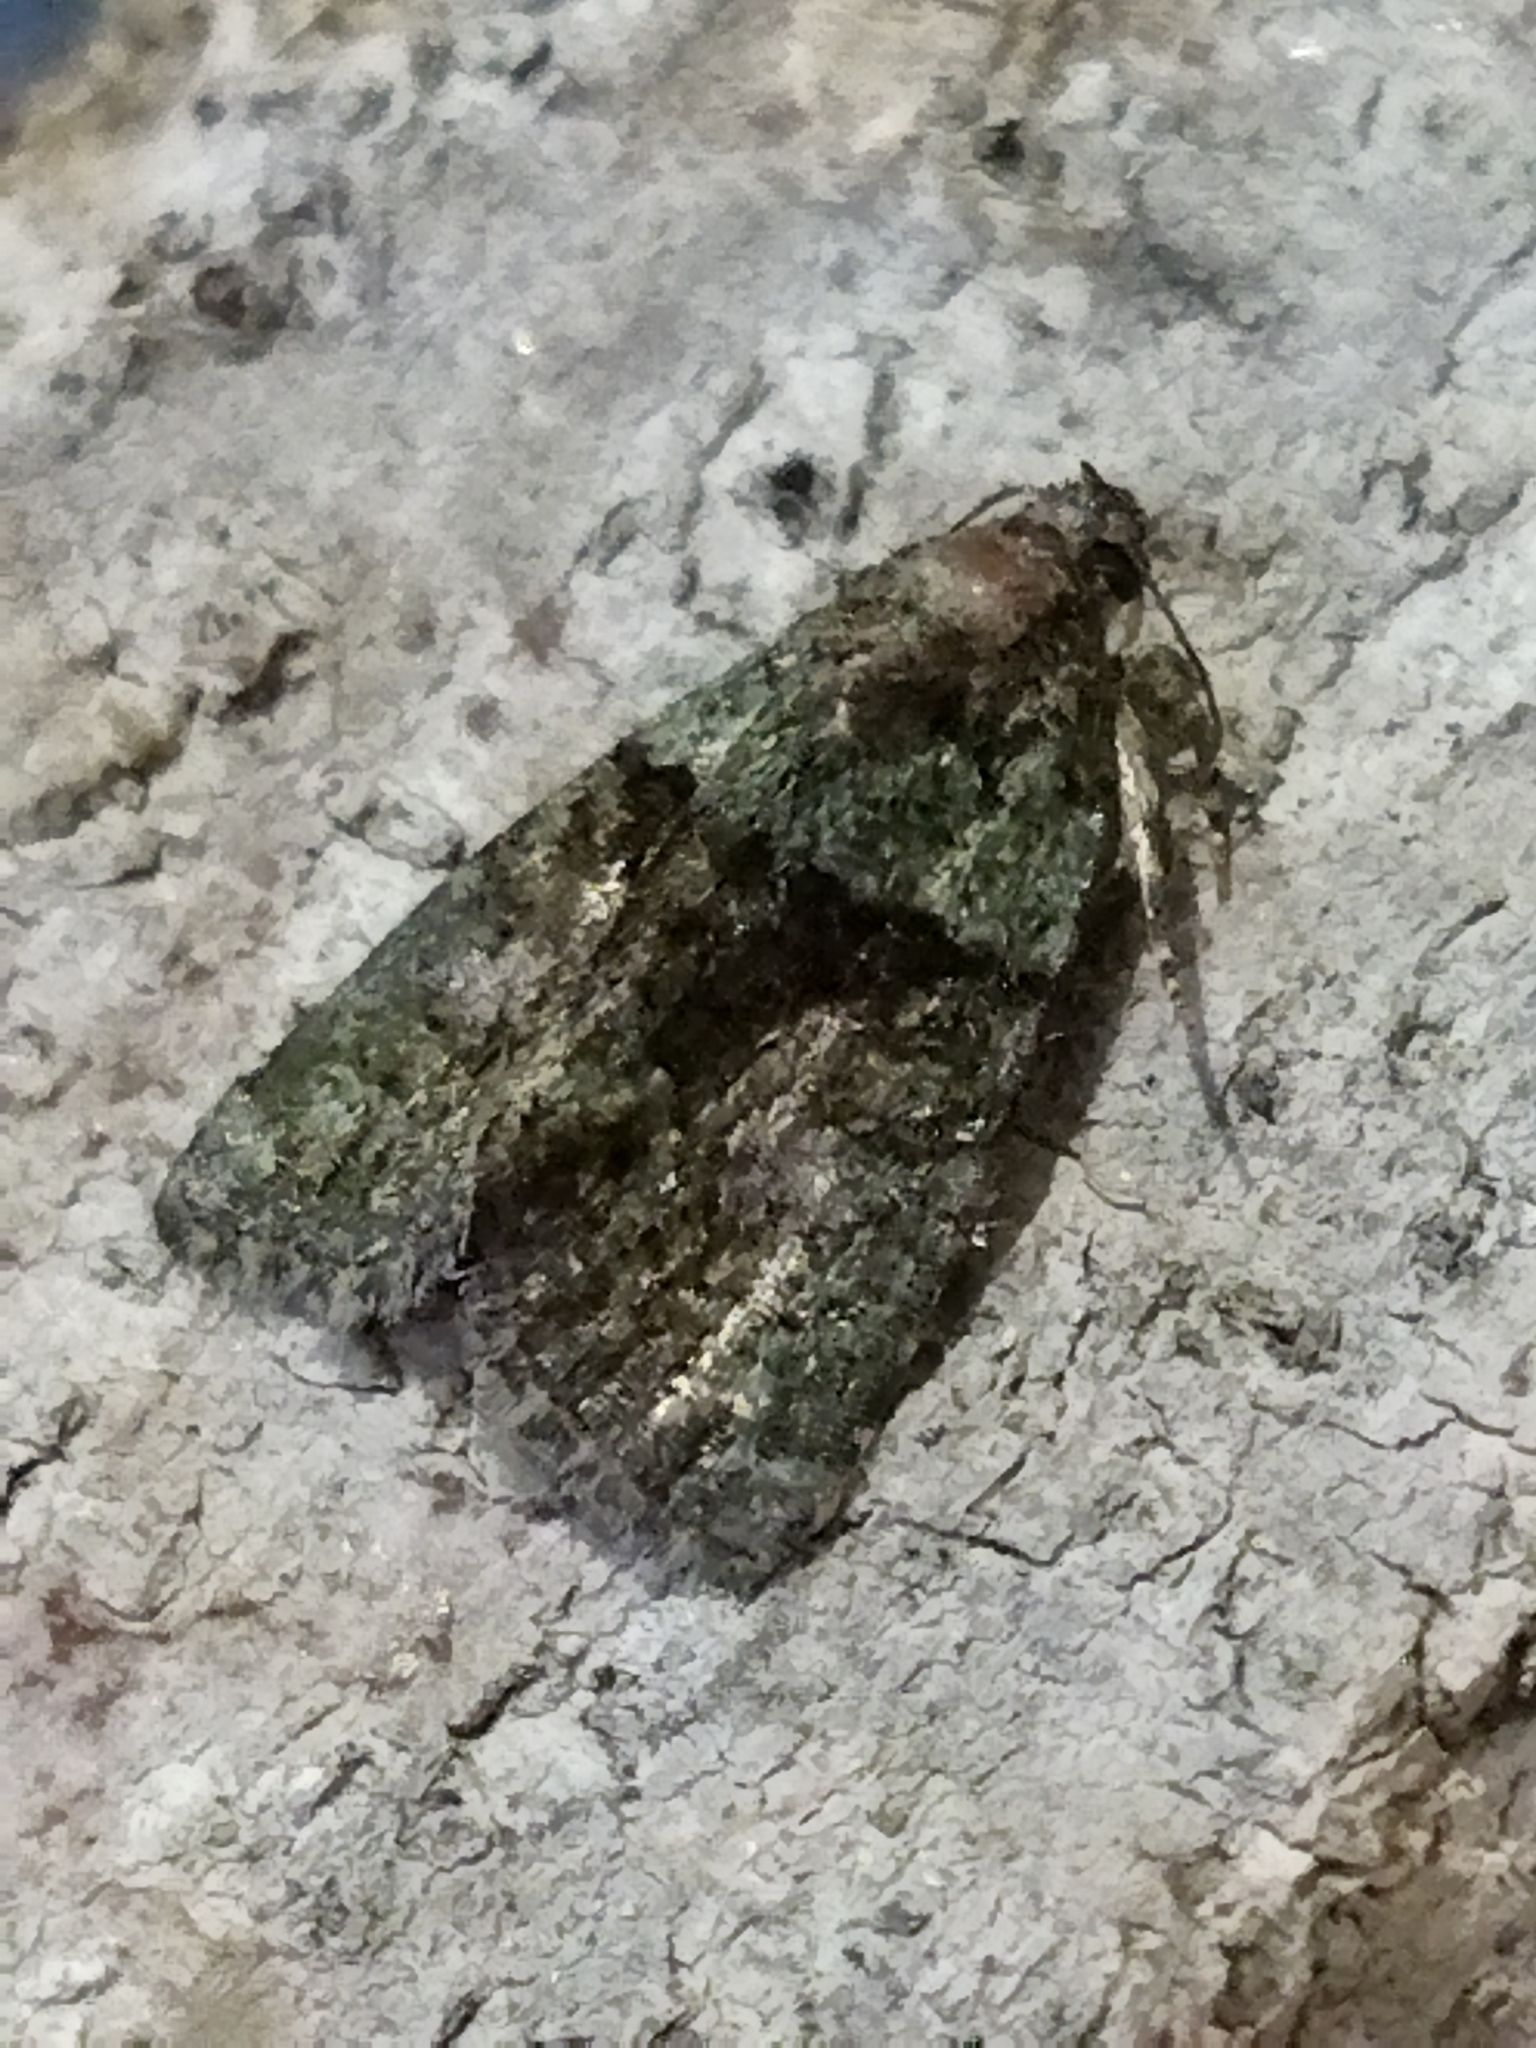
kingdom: Animalia
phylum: Arthropoda
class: Insecta
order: Lepidoptera
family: Noctuidae
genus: Cryphia
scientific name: Cryphia
